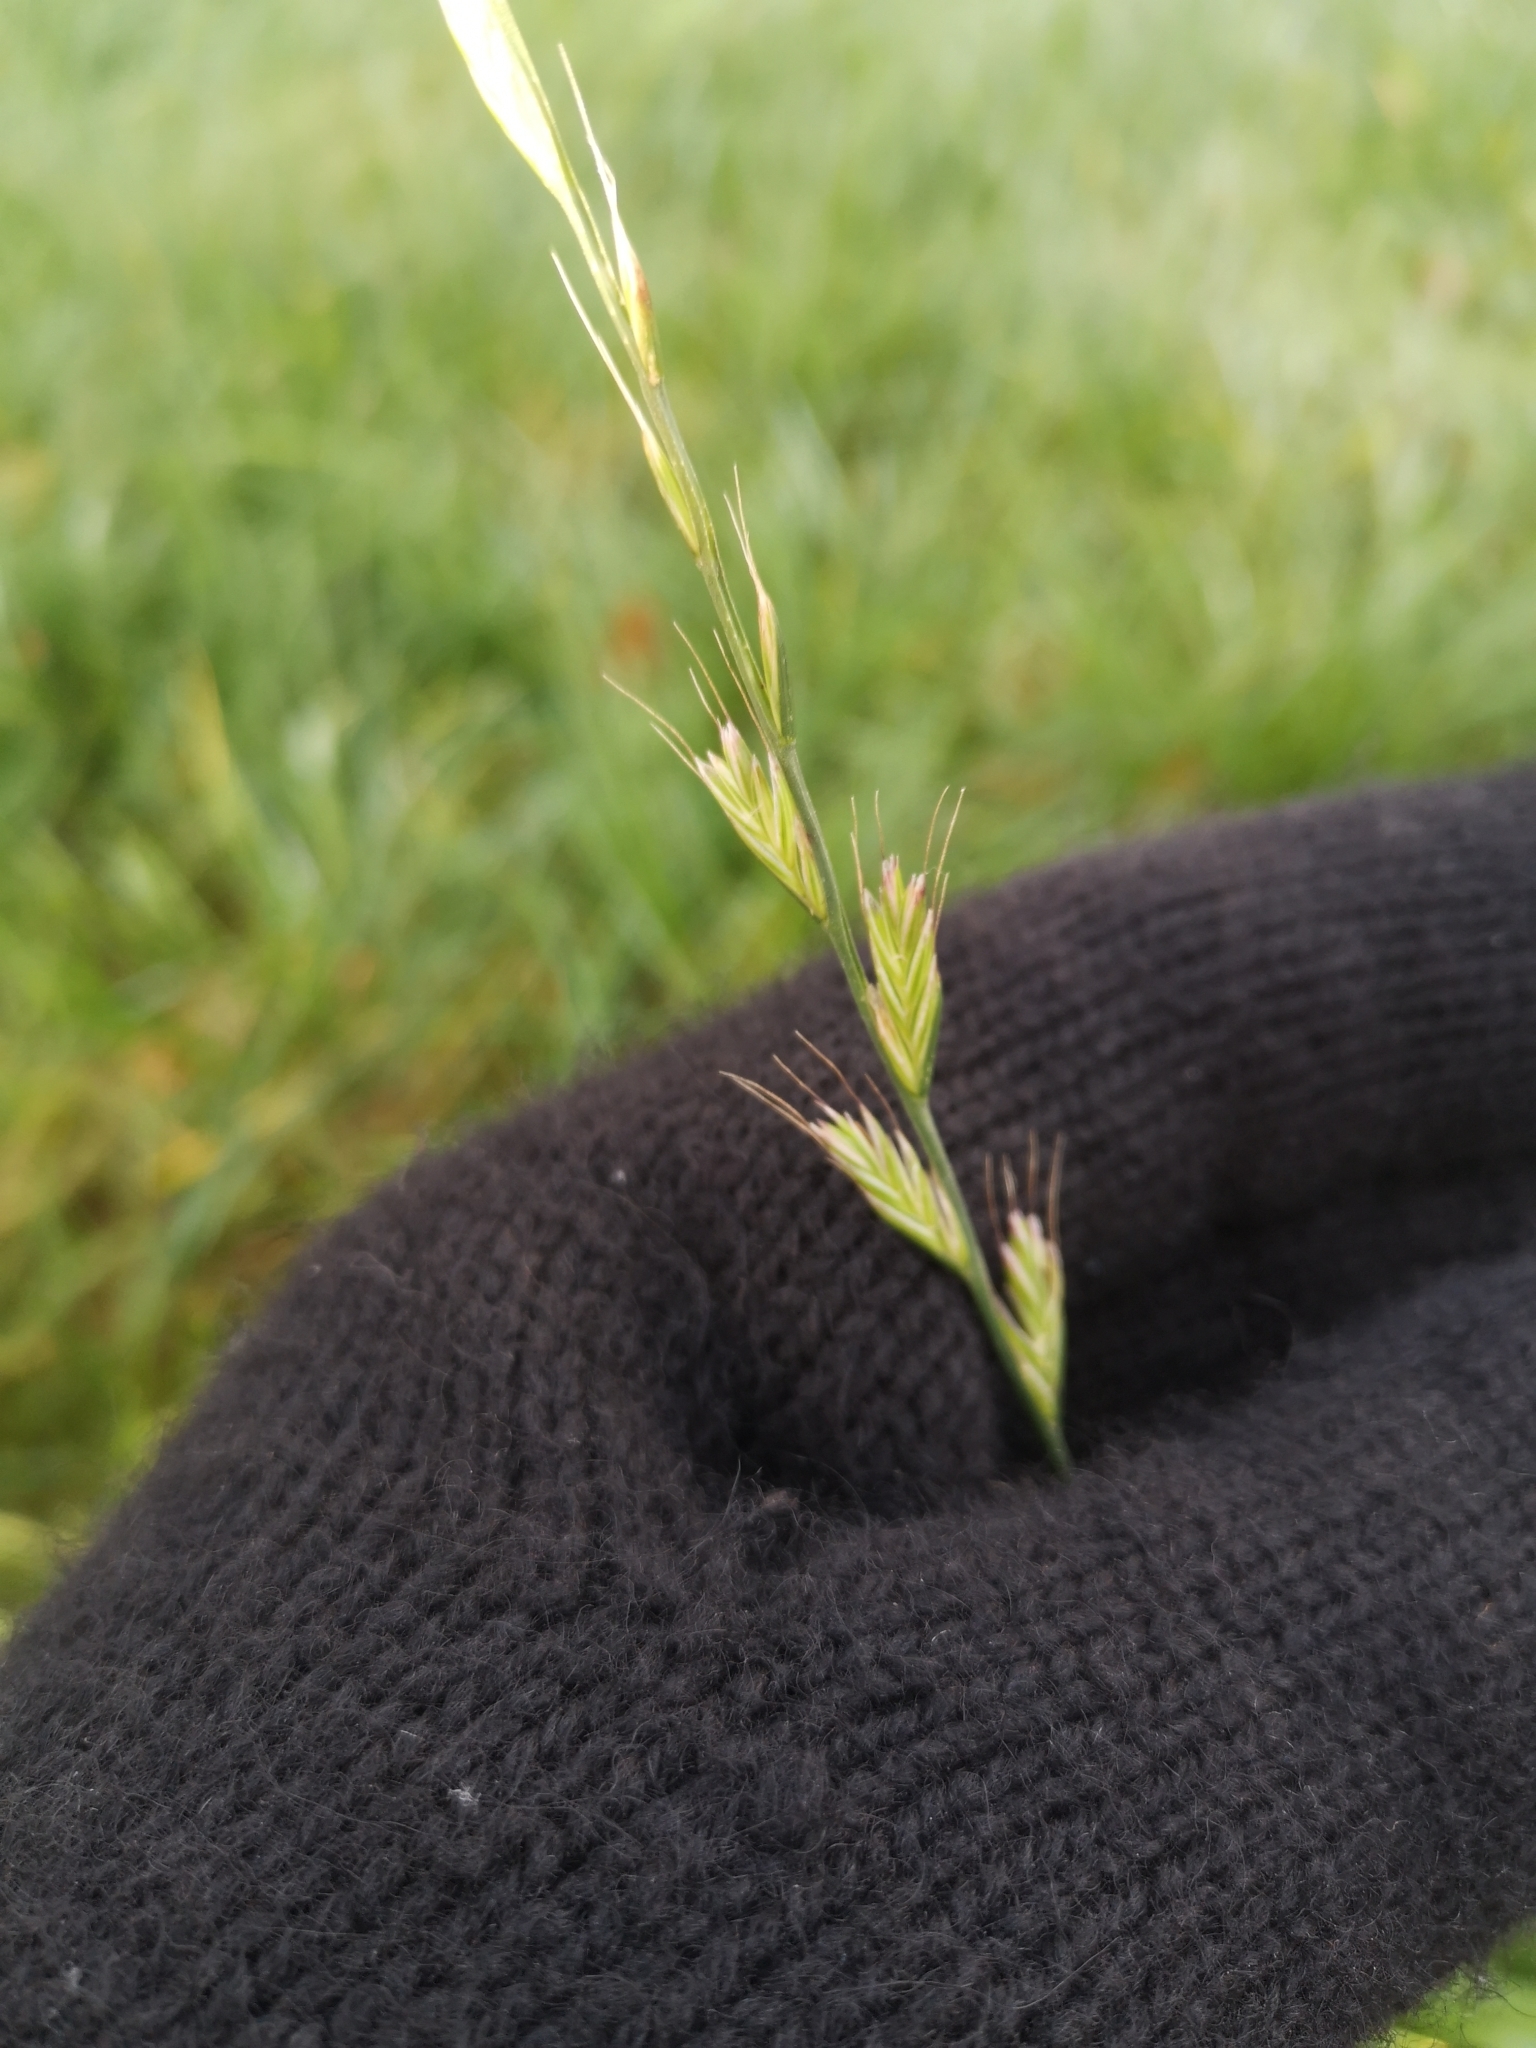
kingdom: Plantae
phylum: Tracheophyta
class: Liliopsida
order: Poales
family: Poaceae
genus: Lolium
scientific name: Lolium multiflorum
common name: Annual ryegrass
